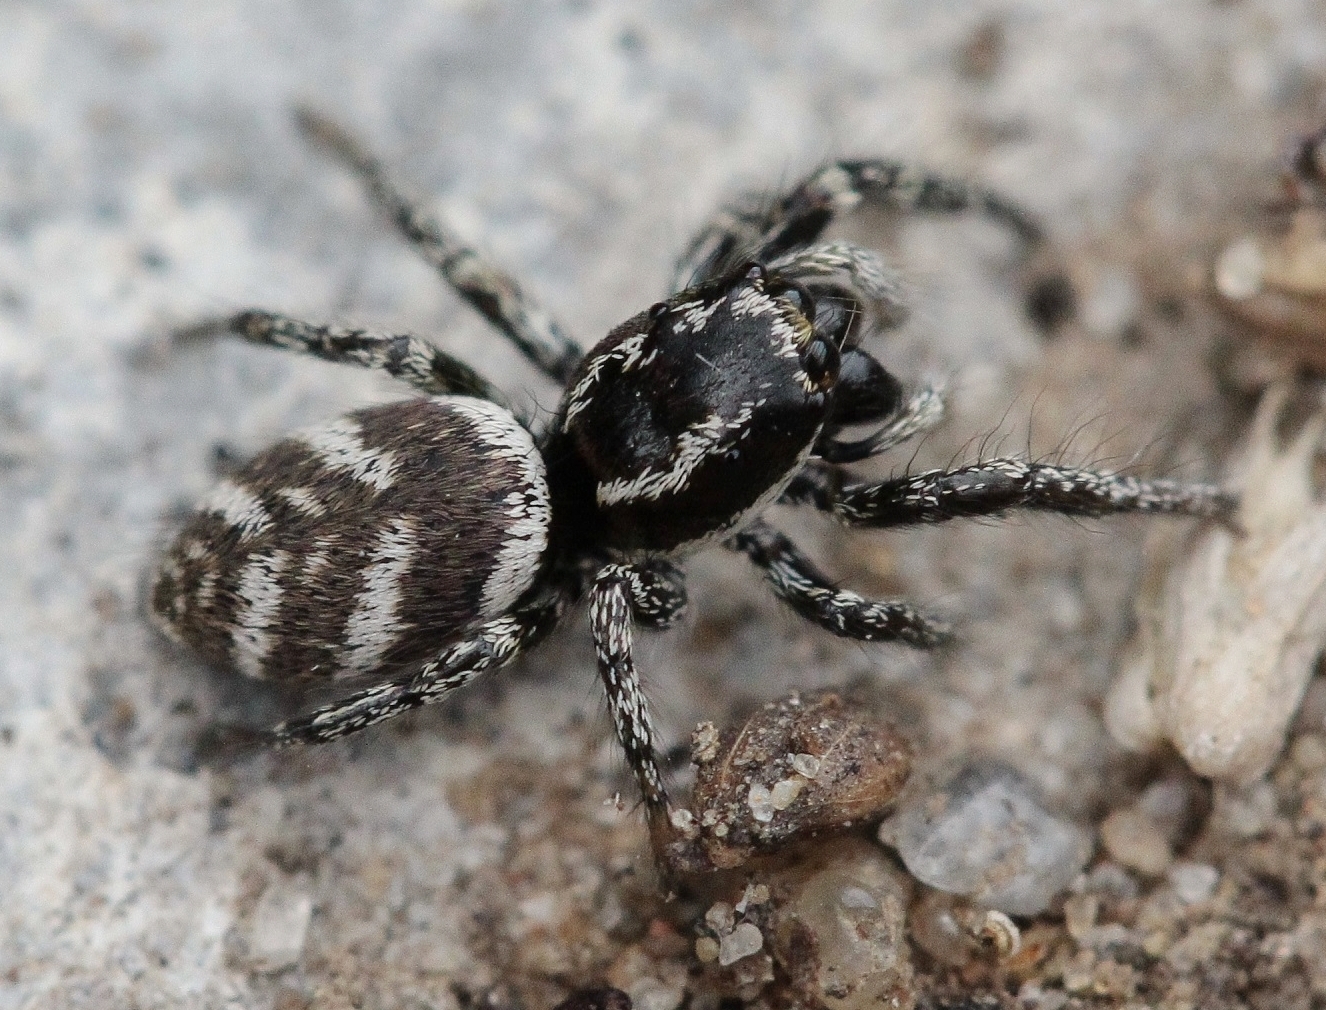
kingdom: Animalia
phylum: Arthropoda
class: Arachnida
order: Araneae
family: Salticidae
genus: Salticus
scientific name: Salticus scenicus
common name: Zebra jumper
